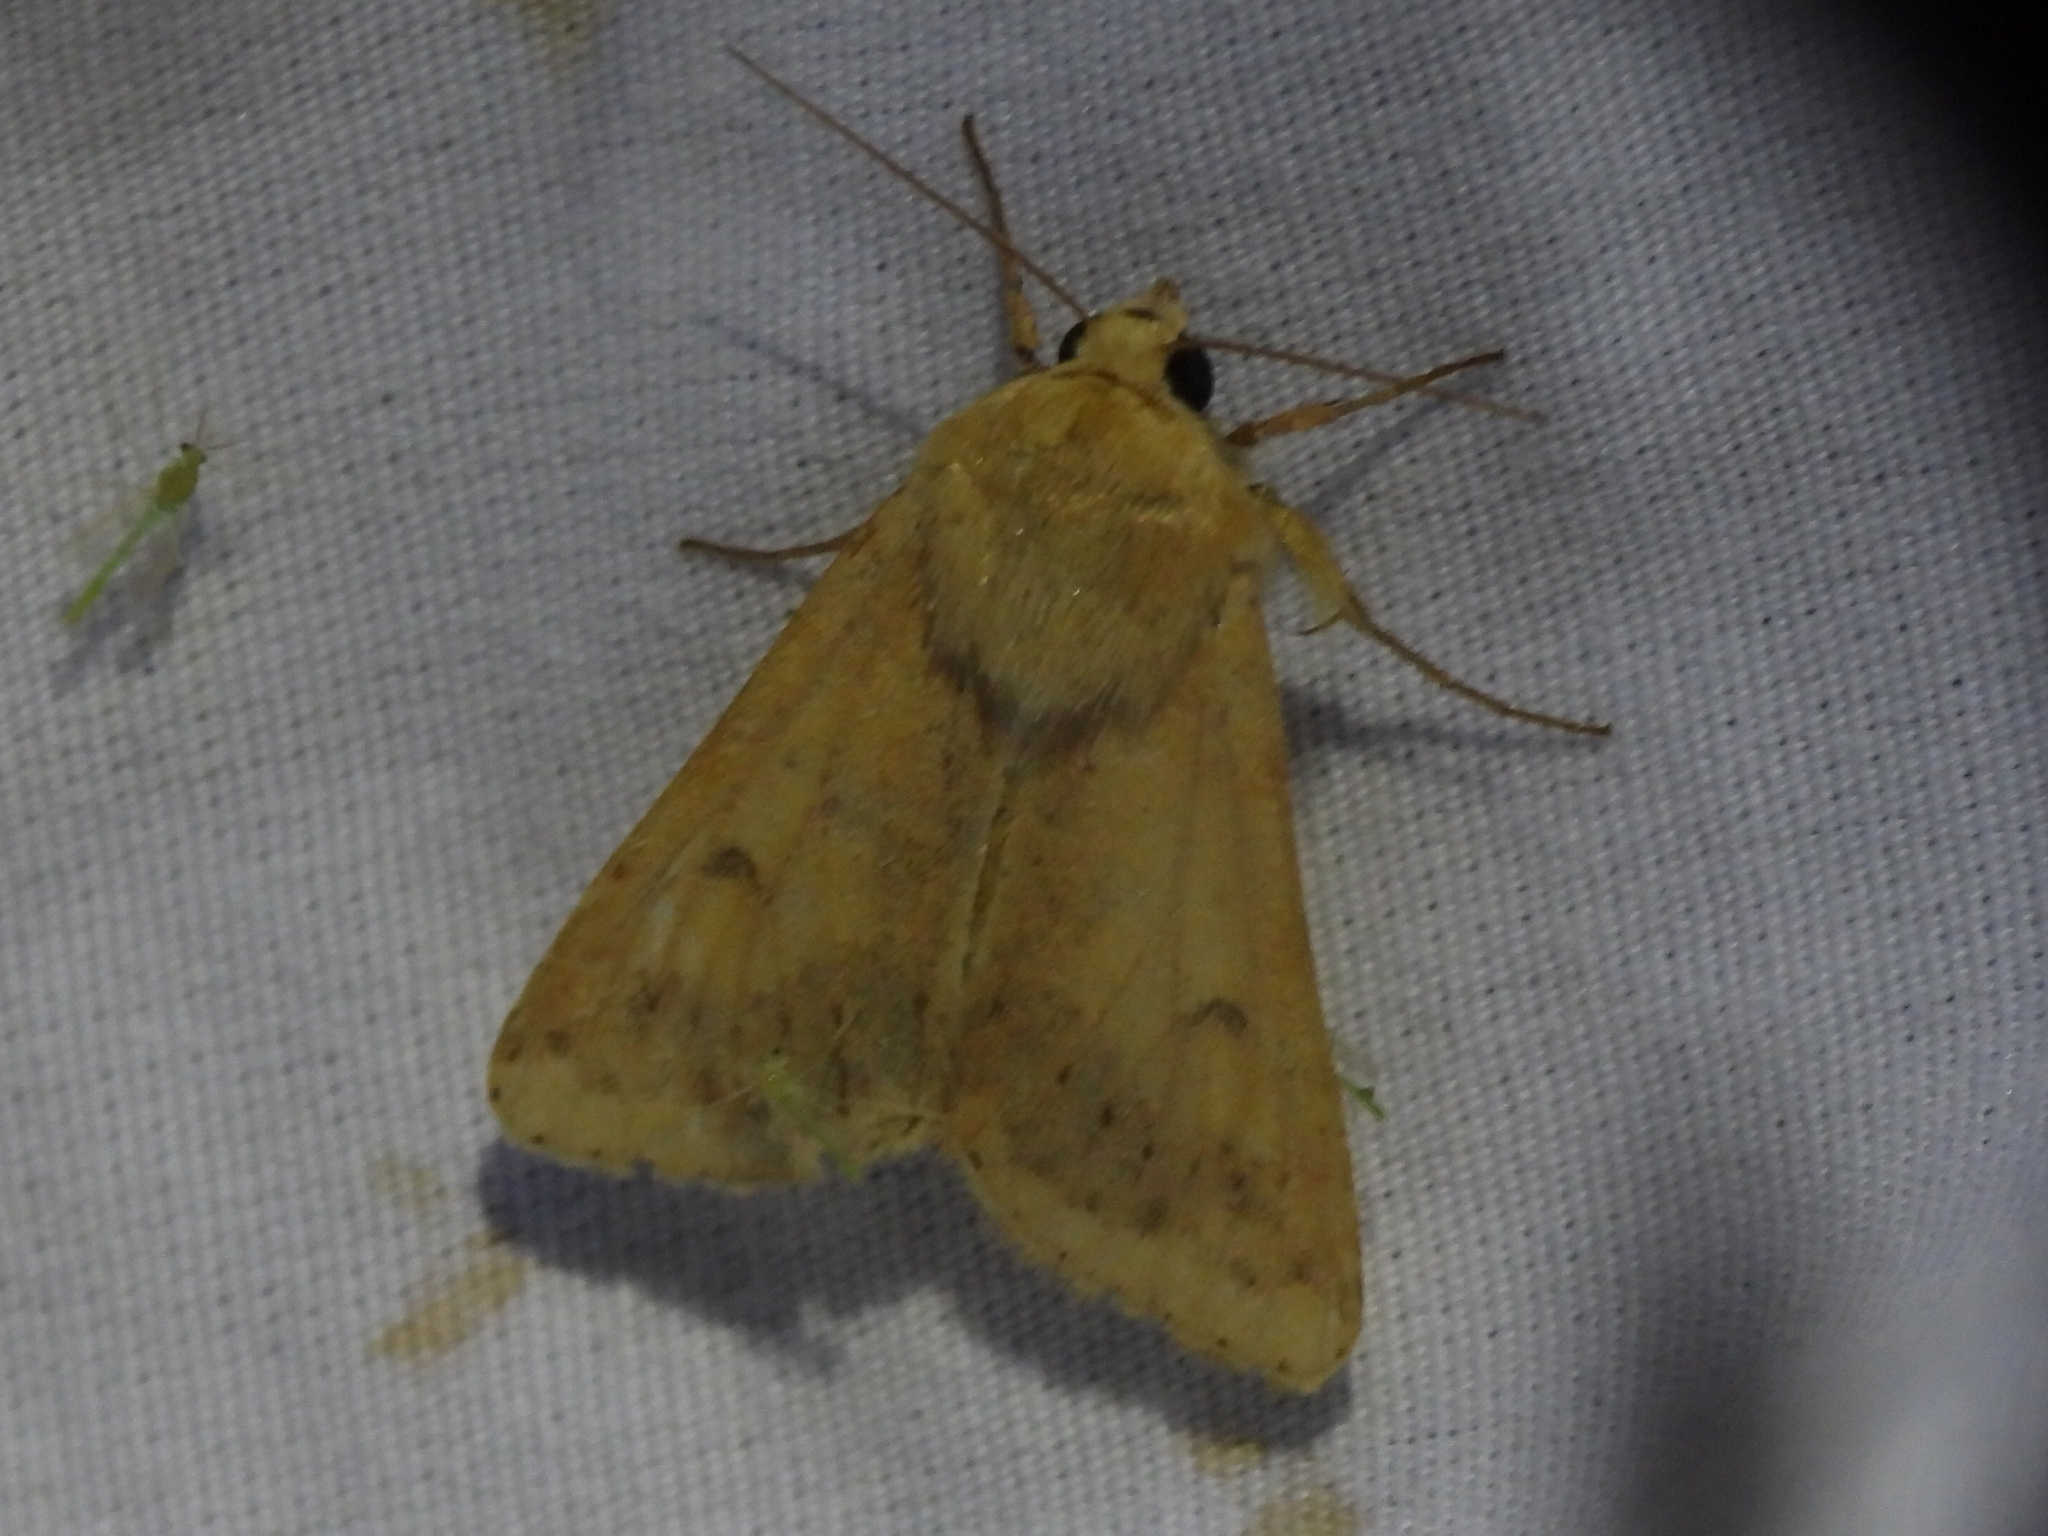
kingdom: Animalia
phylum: Arthropoda
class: Insecta
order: Lepidoptera
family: Noctuidae
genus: Helicoverpa
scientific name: Helicoverpa zea
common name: Bollworm
